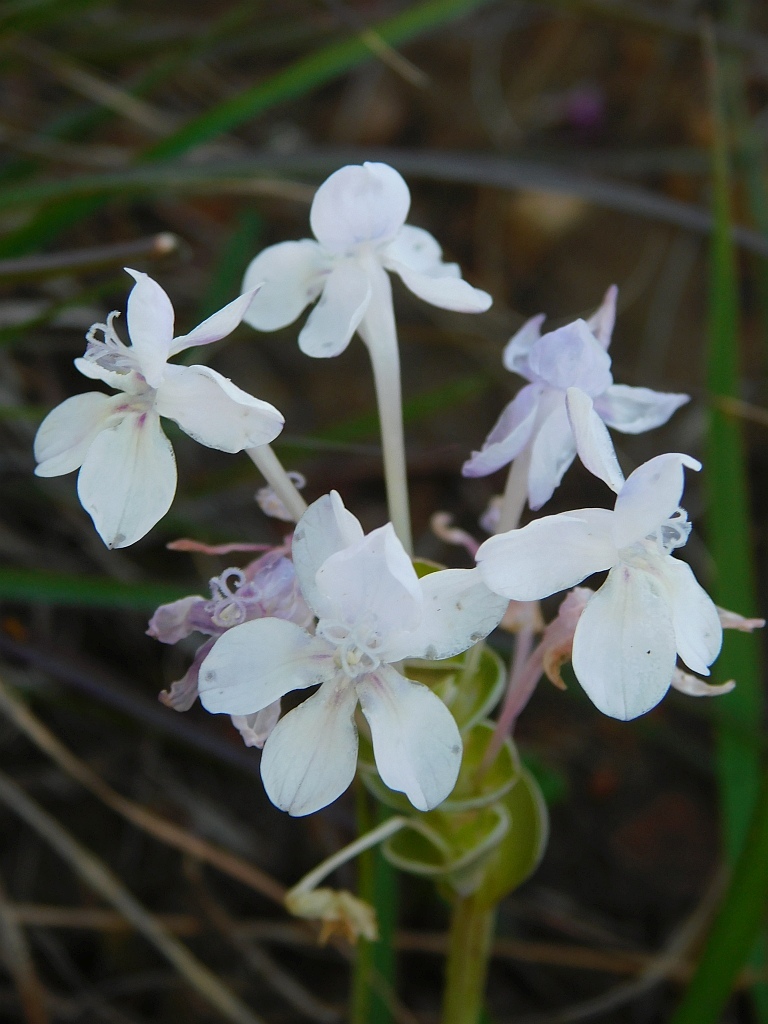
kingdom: Plantae
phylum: Tracheophyta
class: Liliopsida
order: Asparagales
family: Iridaceae
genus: Lapeirousia
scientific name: Lapeirousia pyramidalis
